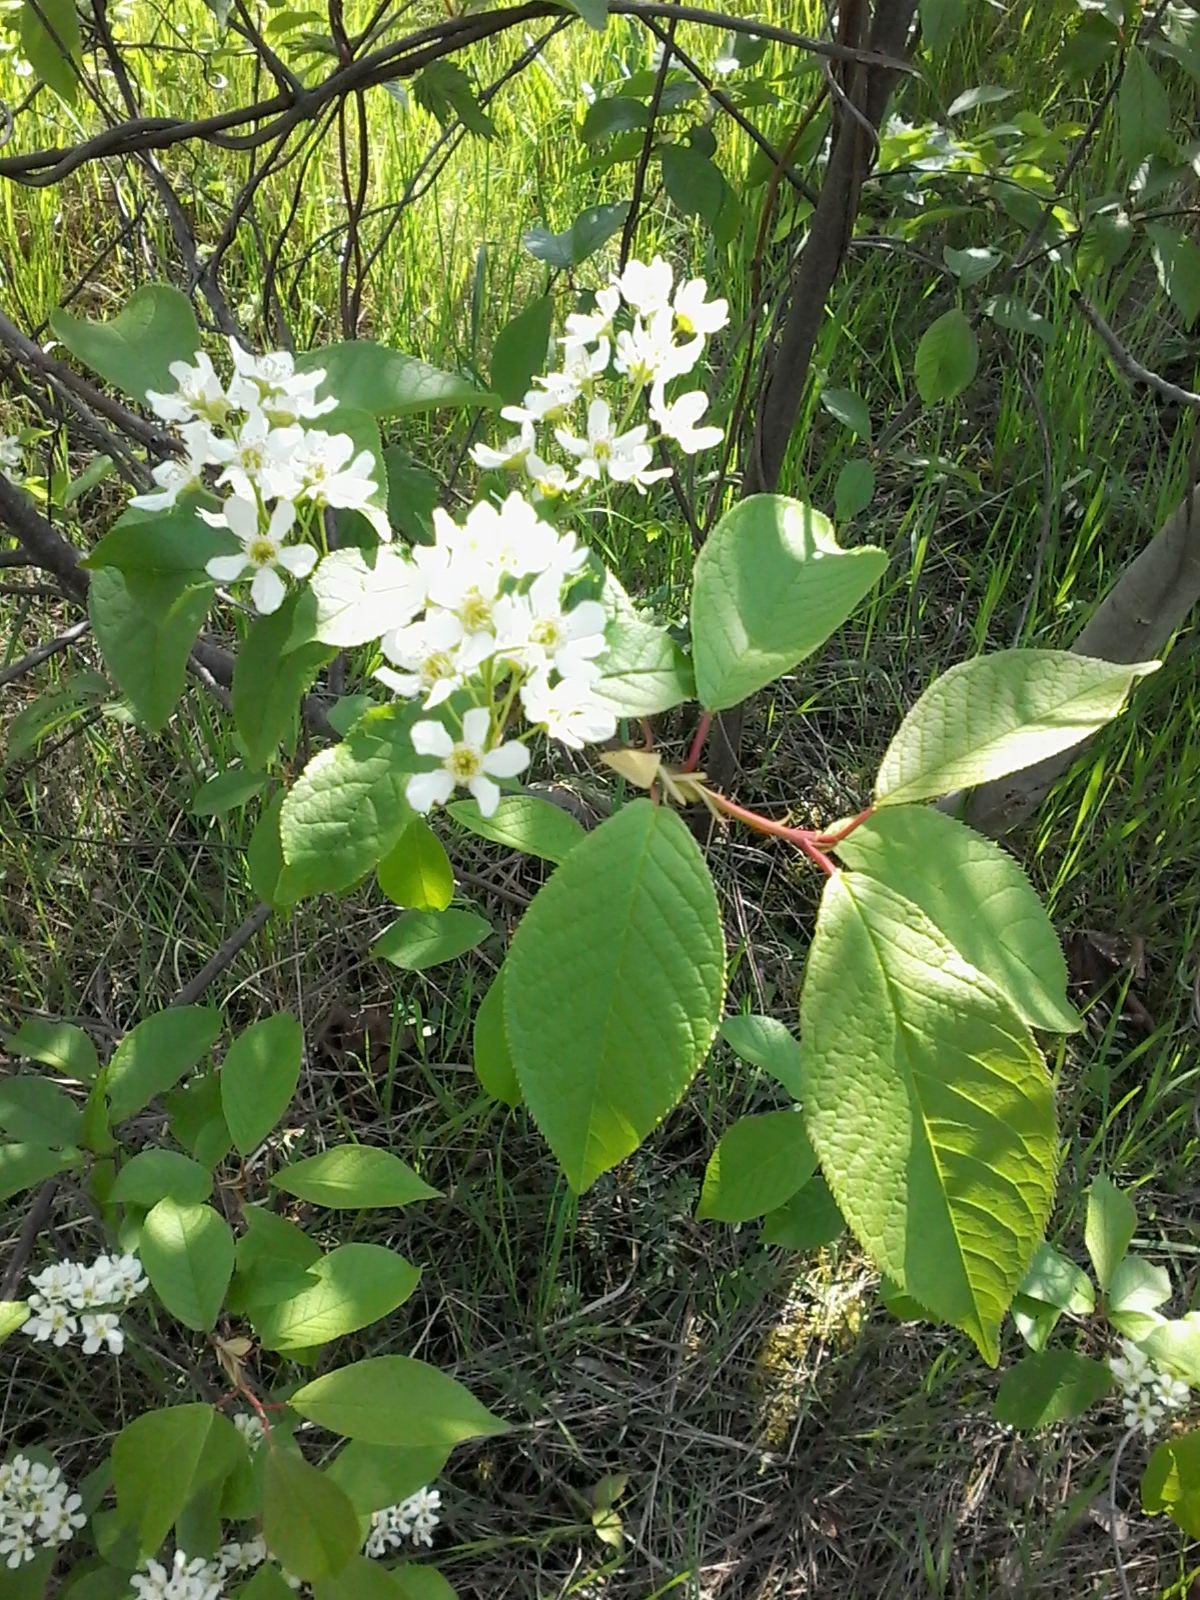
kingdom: Plantae
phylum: Tracheophyta
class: Magnoliopsida
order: Rosales
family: Rosaceae
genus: Prunus
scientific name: Prunus padus
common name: Bird cherry
